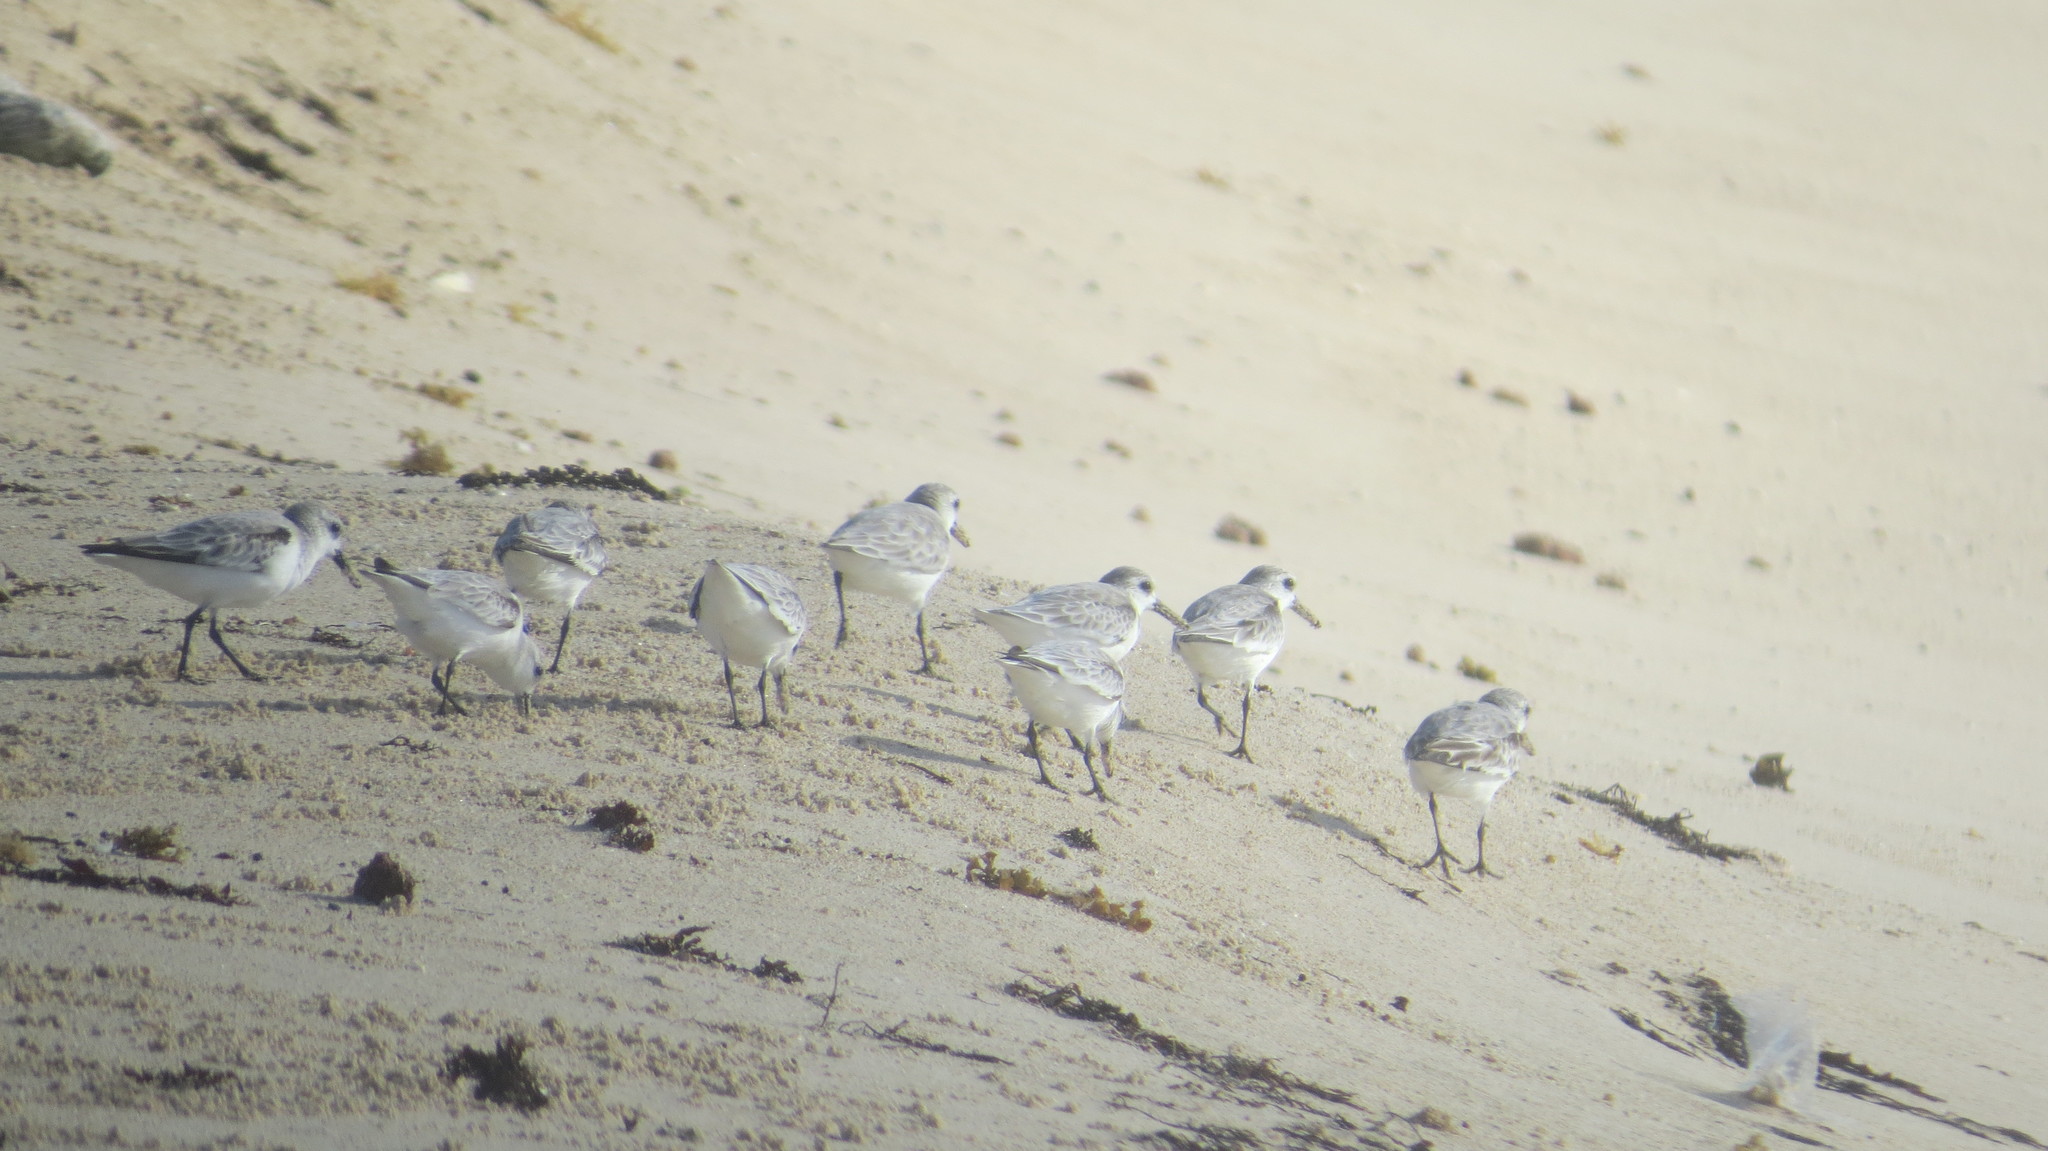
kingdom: Animalia
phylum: Chordata
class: Aves
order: Charadriiformes
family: Scolopacidae
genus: Calidris
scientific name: Calidris alba
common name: Sanderling
